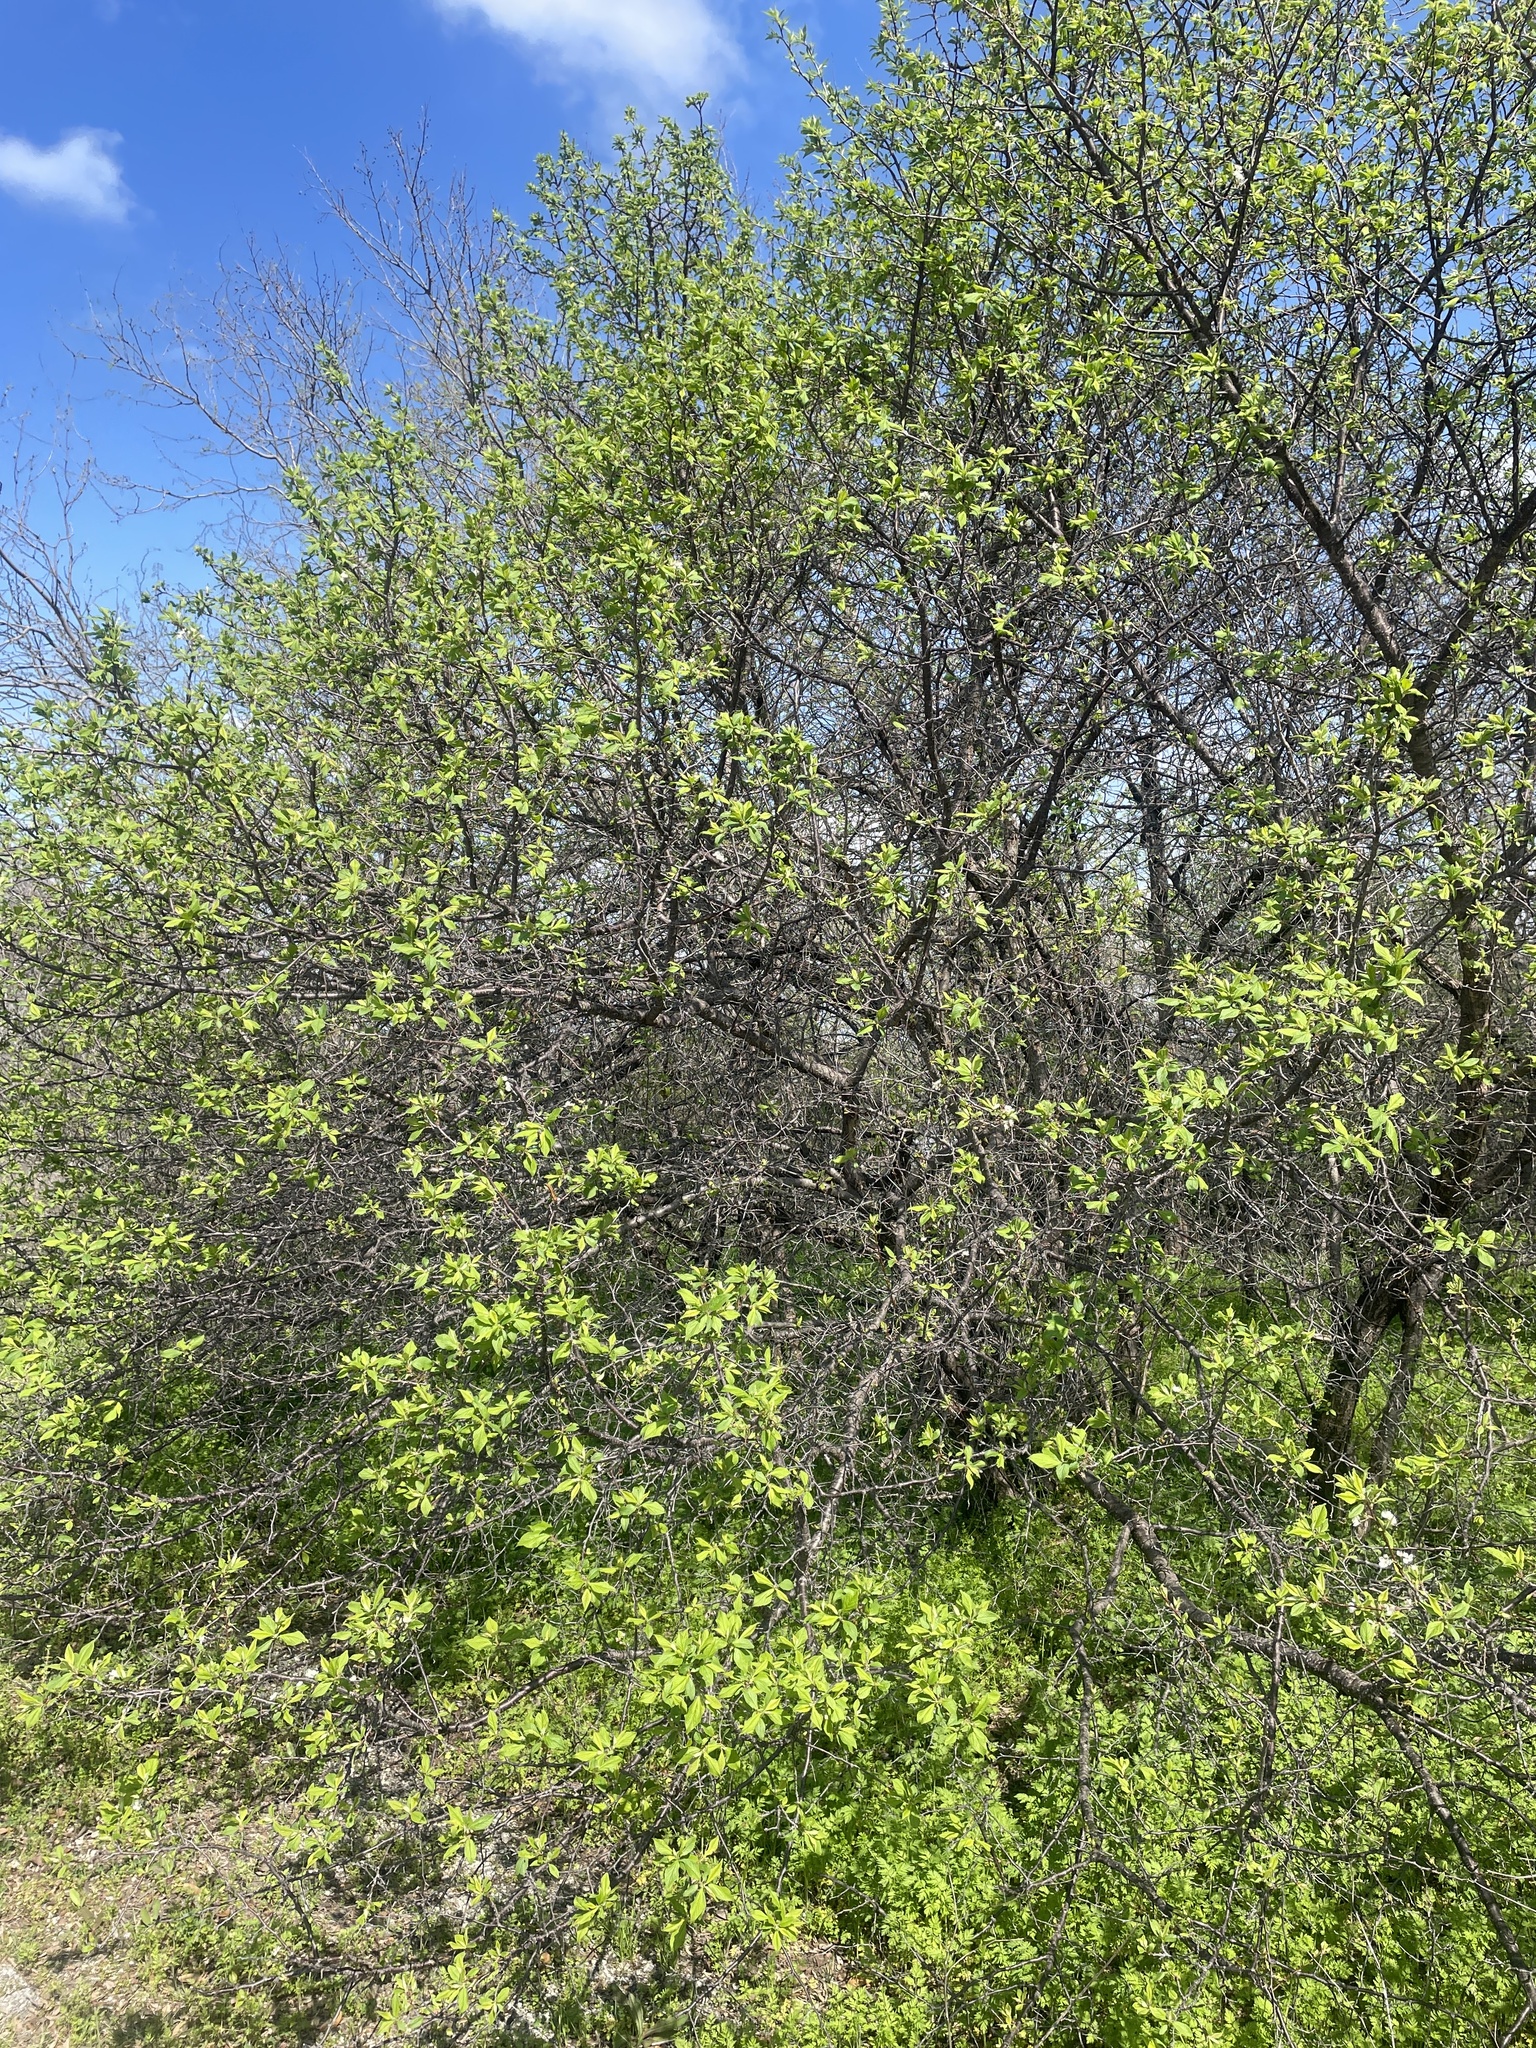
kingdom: Plantae
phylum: Tracheophyta
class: Magnoliopsida
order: Rosales
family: Rosaceae
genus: Prunus
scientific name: Prunus mexicana
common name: Mexican plum
